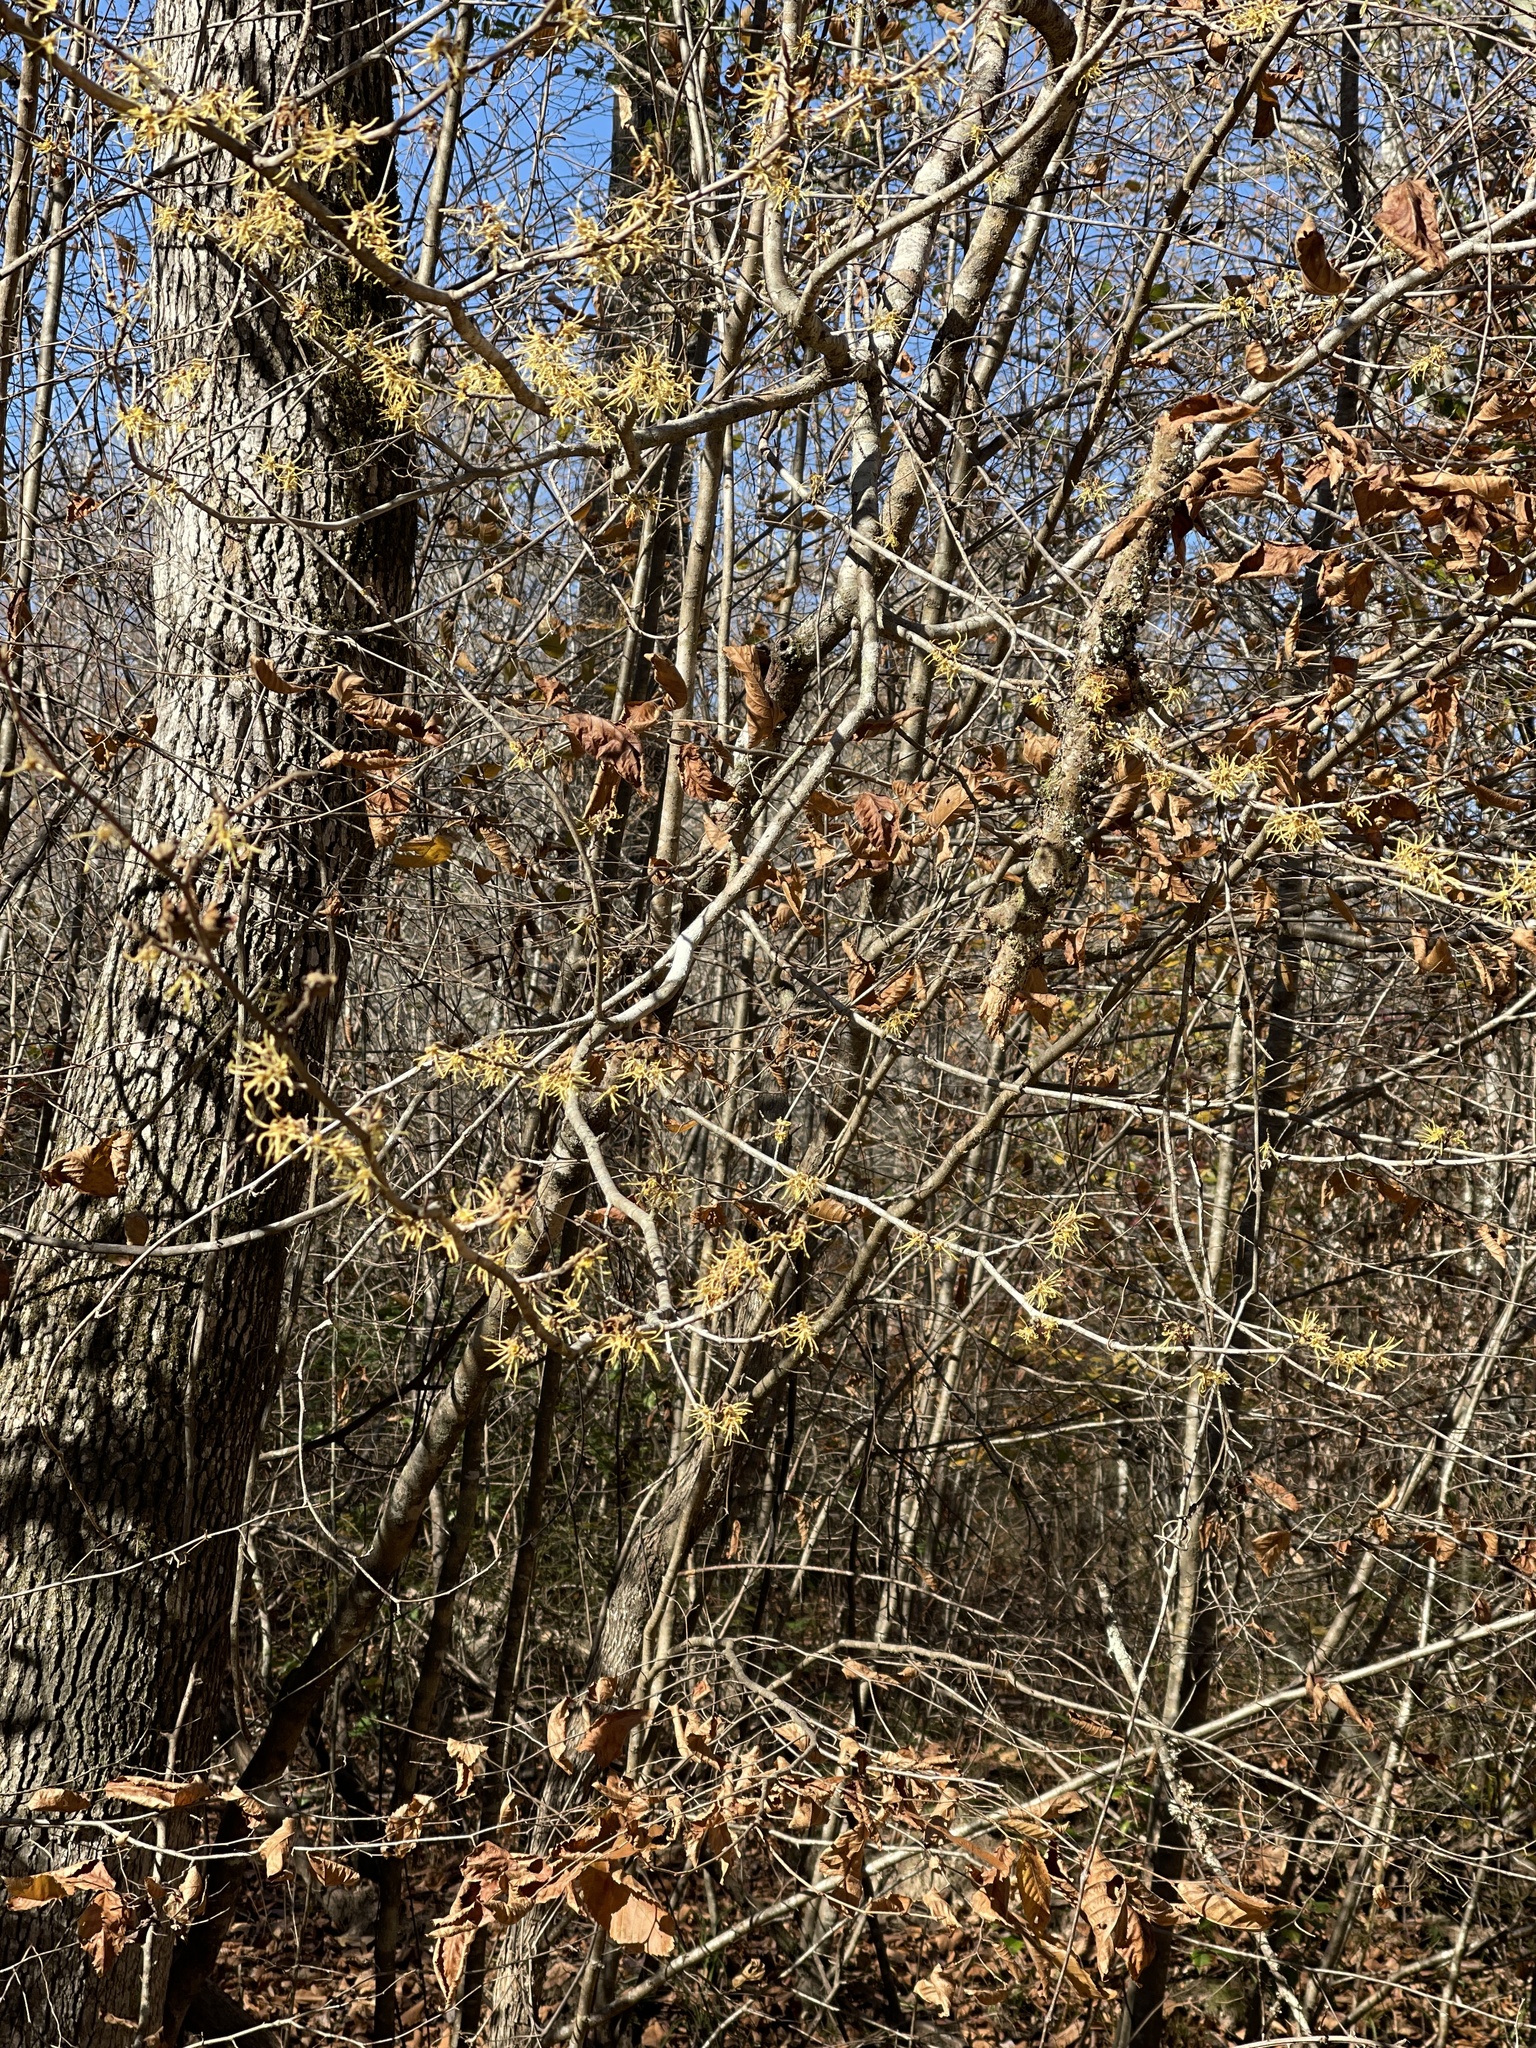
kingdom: Plantae
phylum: Tracheophyta
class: Magnoliopsida
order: Saxifragales
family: Hamamelidaceae
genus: Hamamelis
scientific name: Hamamelis virginiana
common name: Witch-hazel
